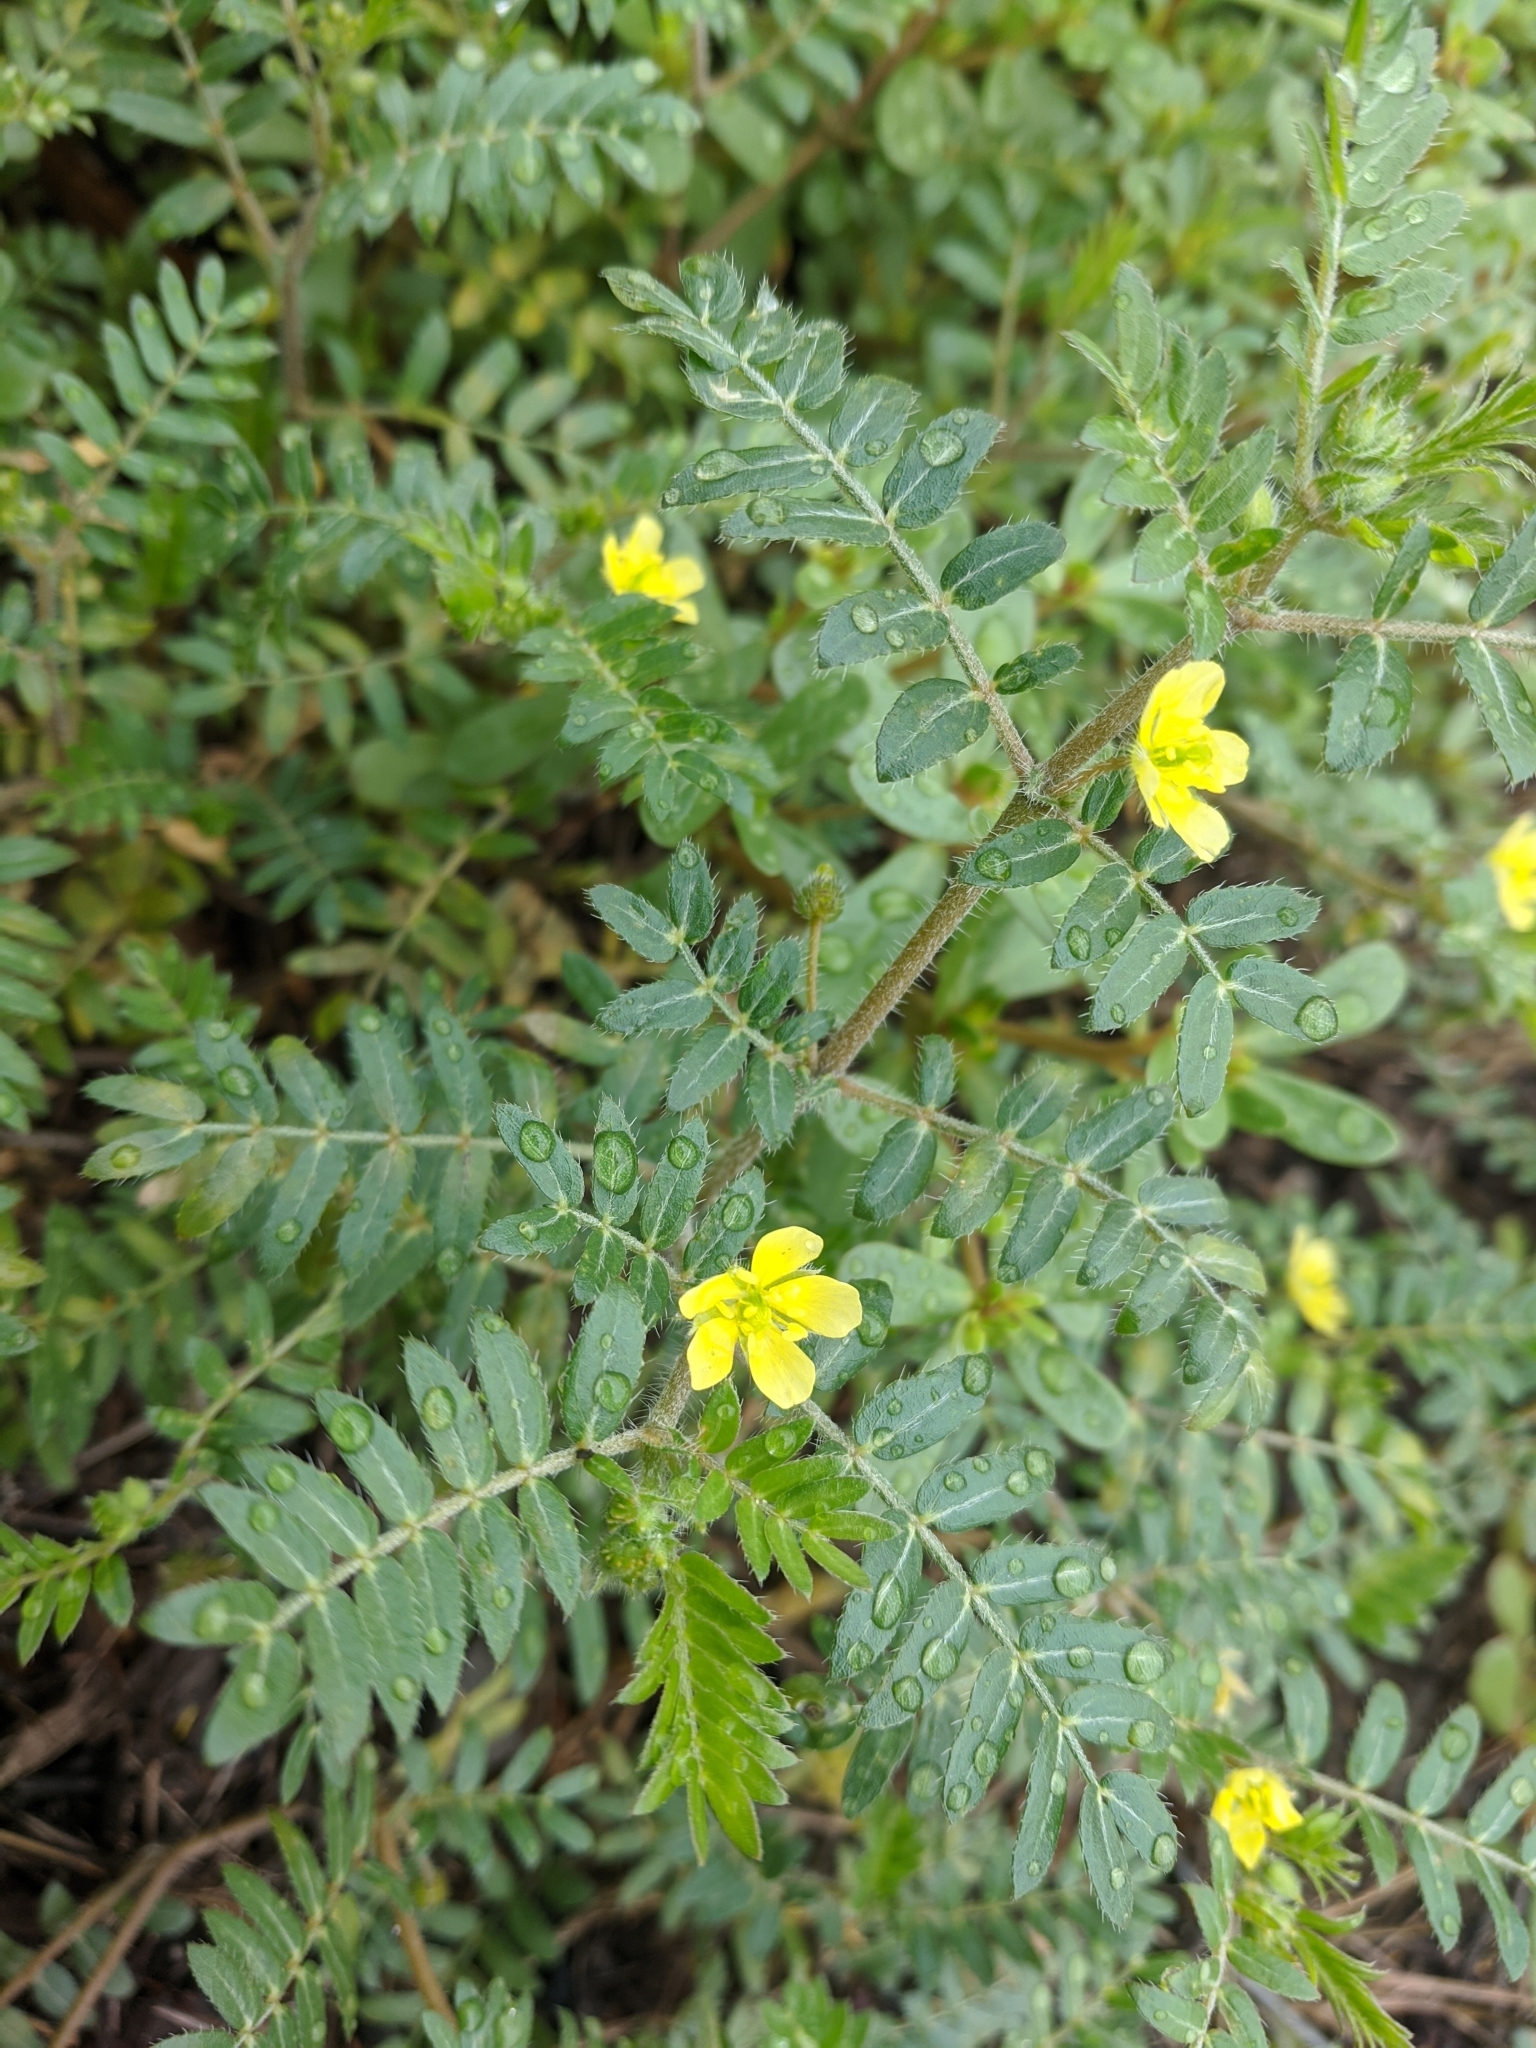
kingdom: Plantae
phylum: Tracheophyta
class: Magnoliopsida
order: Zygophyllales
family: Zygophyllaceae
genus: Tribulus
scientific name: Tribulus terrestris
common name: Puncturevine
